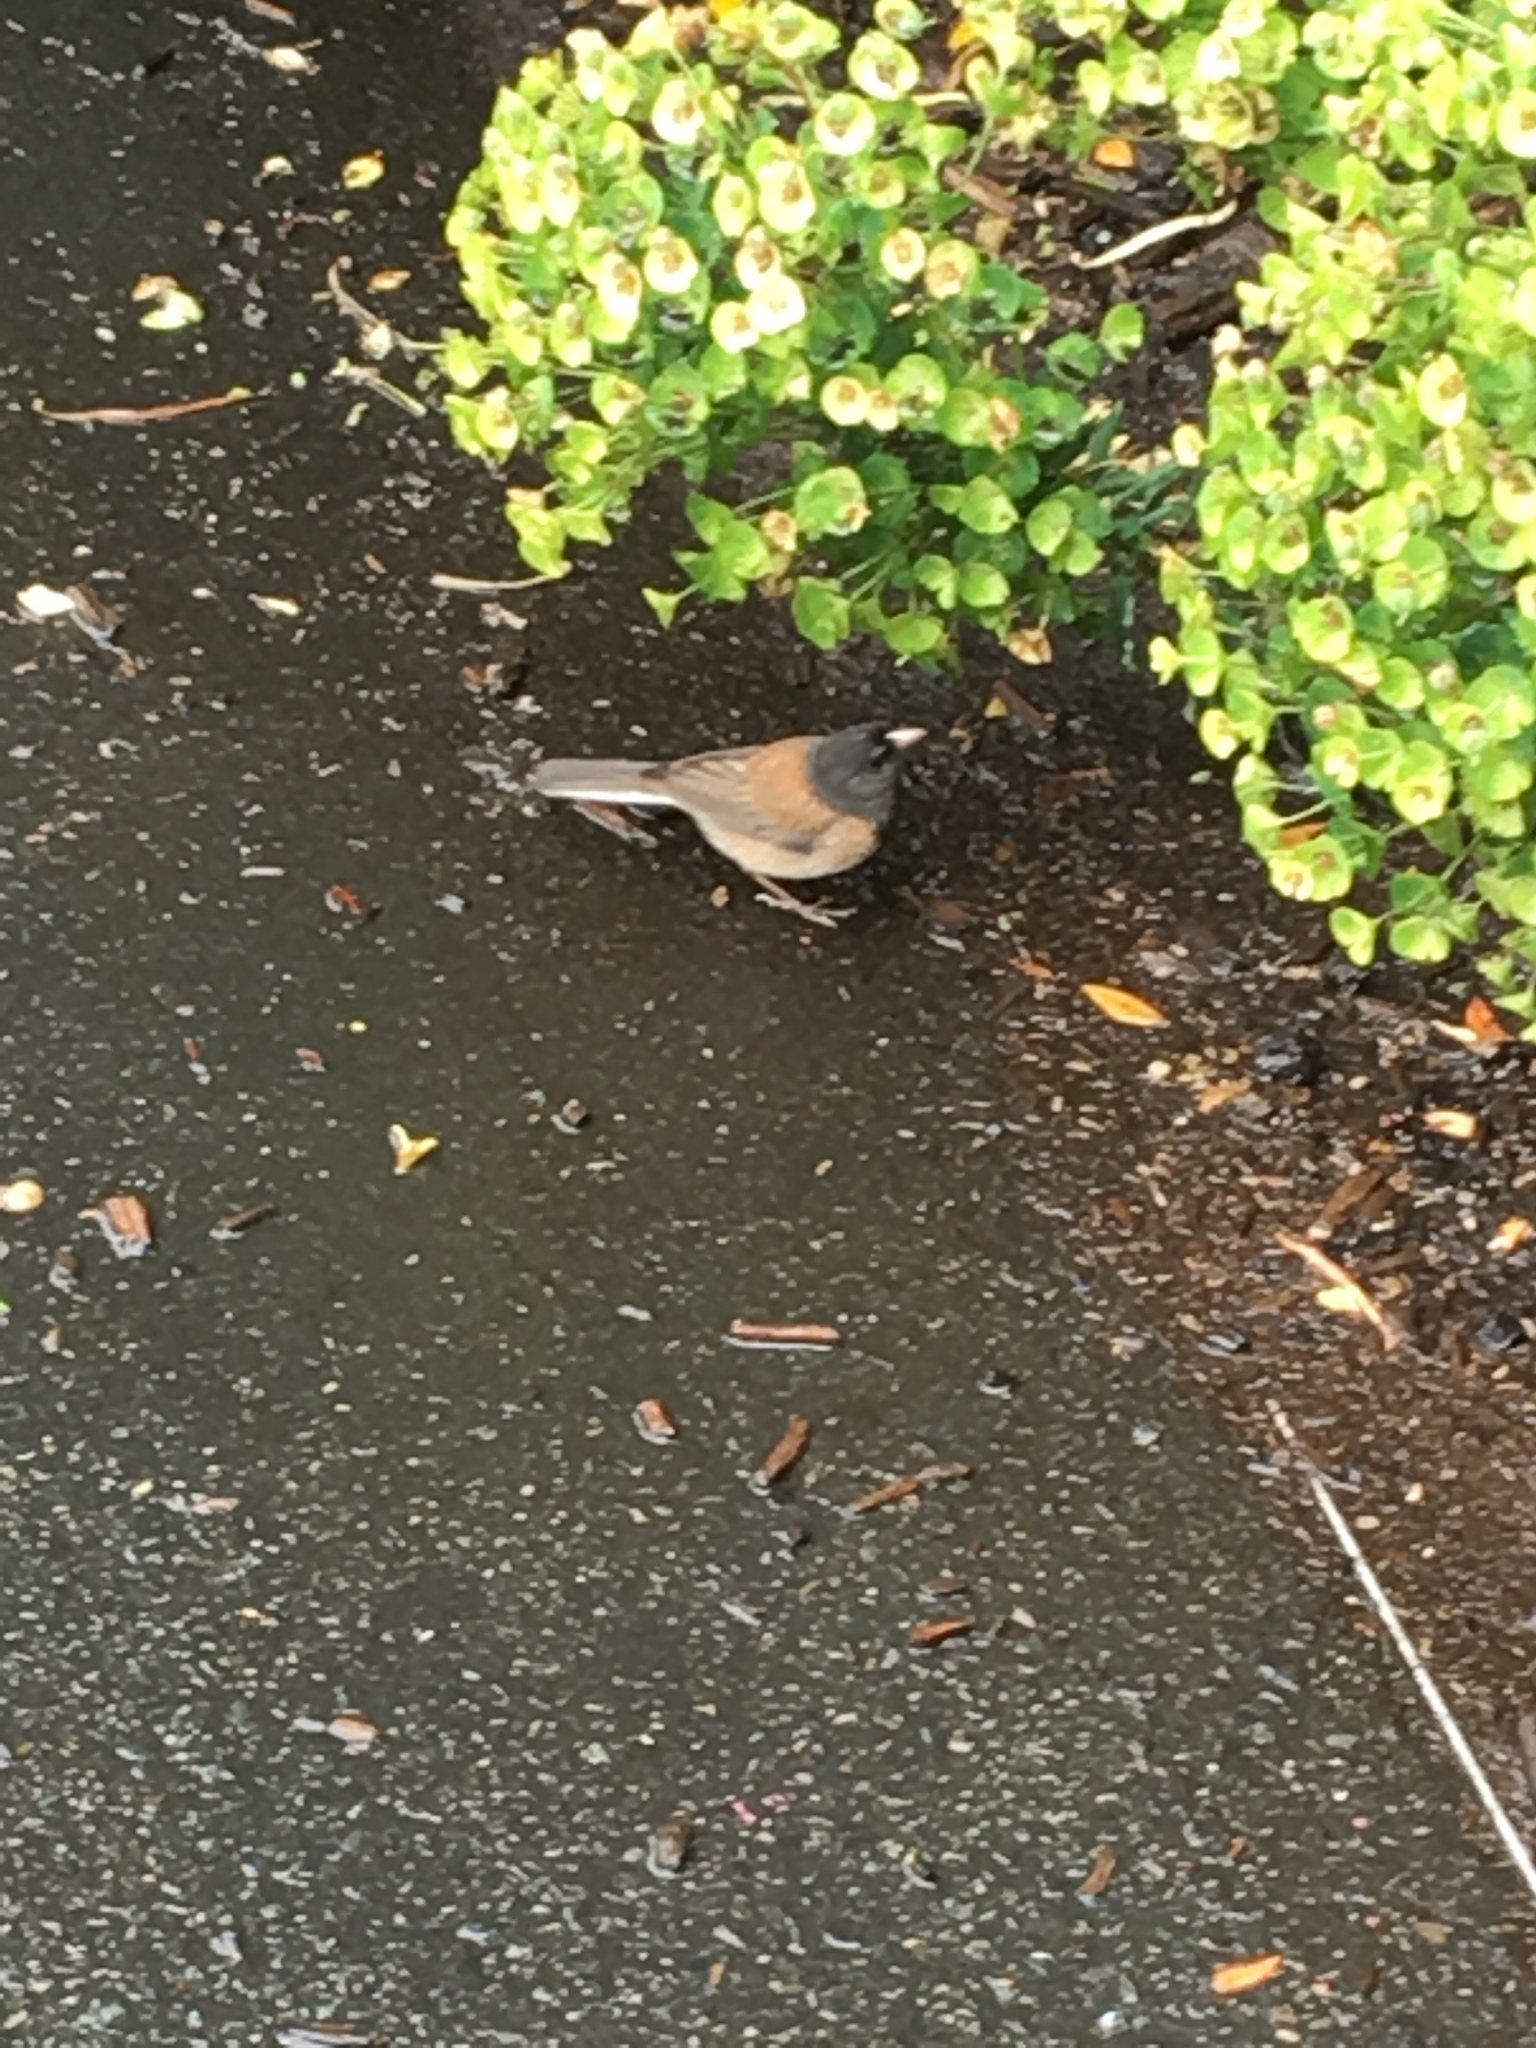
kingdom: Animalia
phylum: Chordata
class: Aves
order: Passeriformes
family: Passerellidae
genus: Junco
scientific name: Junco hyemalis
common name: Dark-eyed junco
